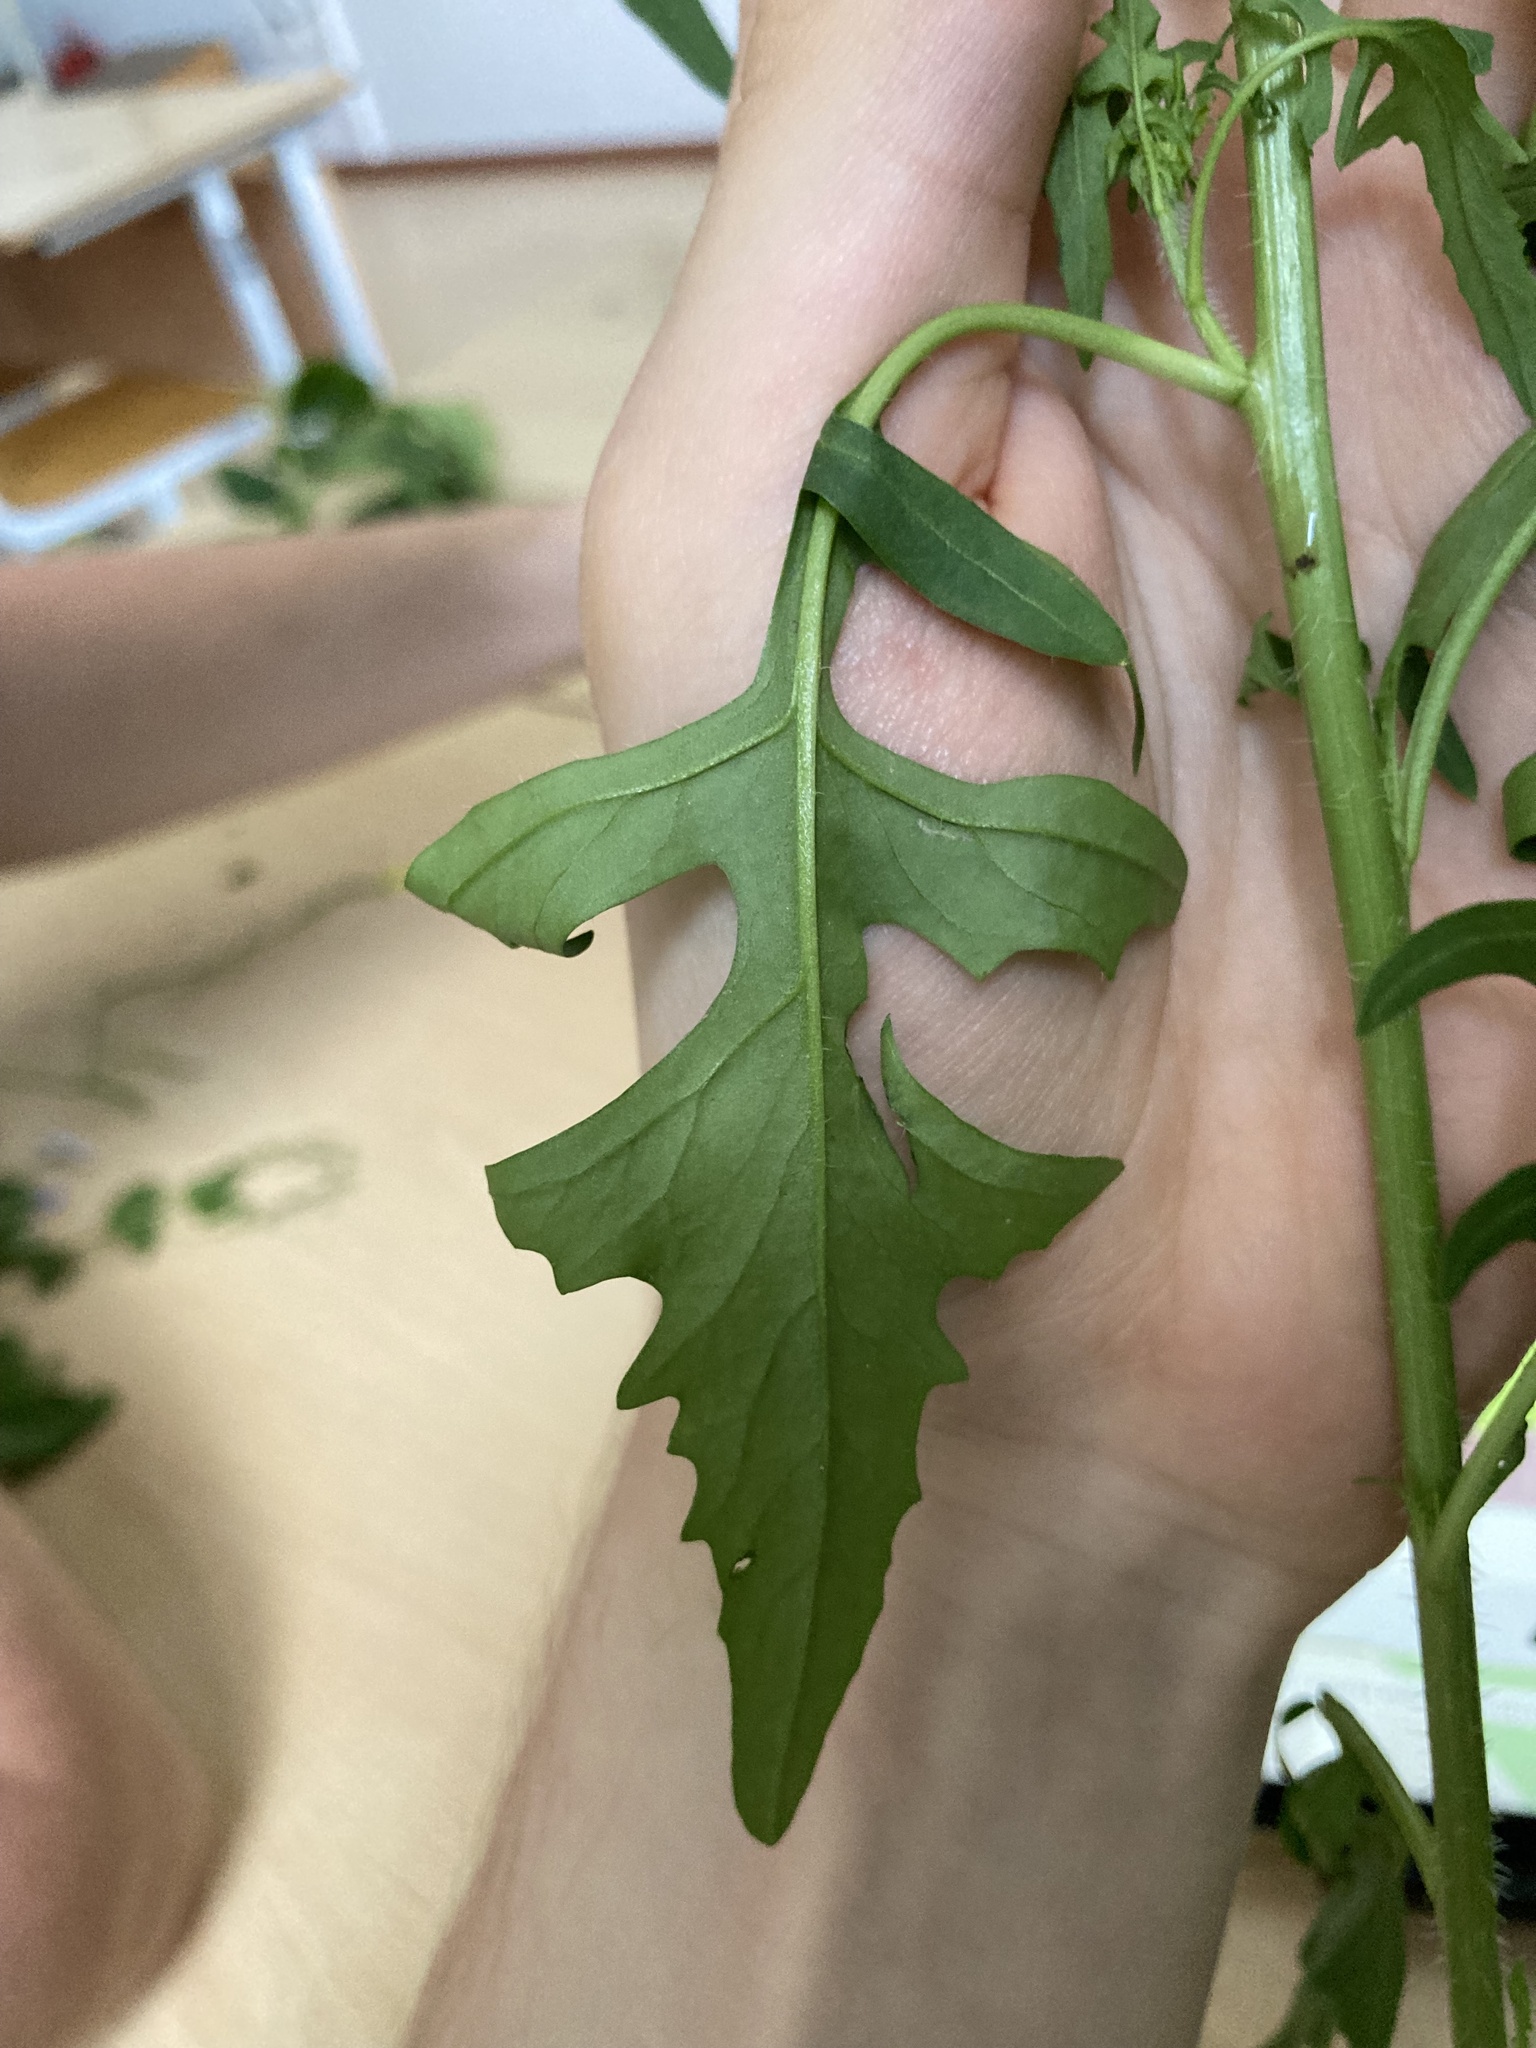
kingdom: Plantae
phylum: Tracheophyta
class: Magnoliopsida
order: Brassicales
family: Brassicaceae
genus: Raphanus
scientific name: Raphanus raphanistrum
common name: Wild radish
